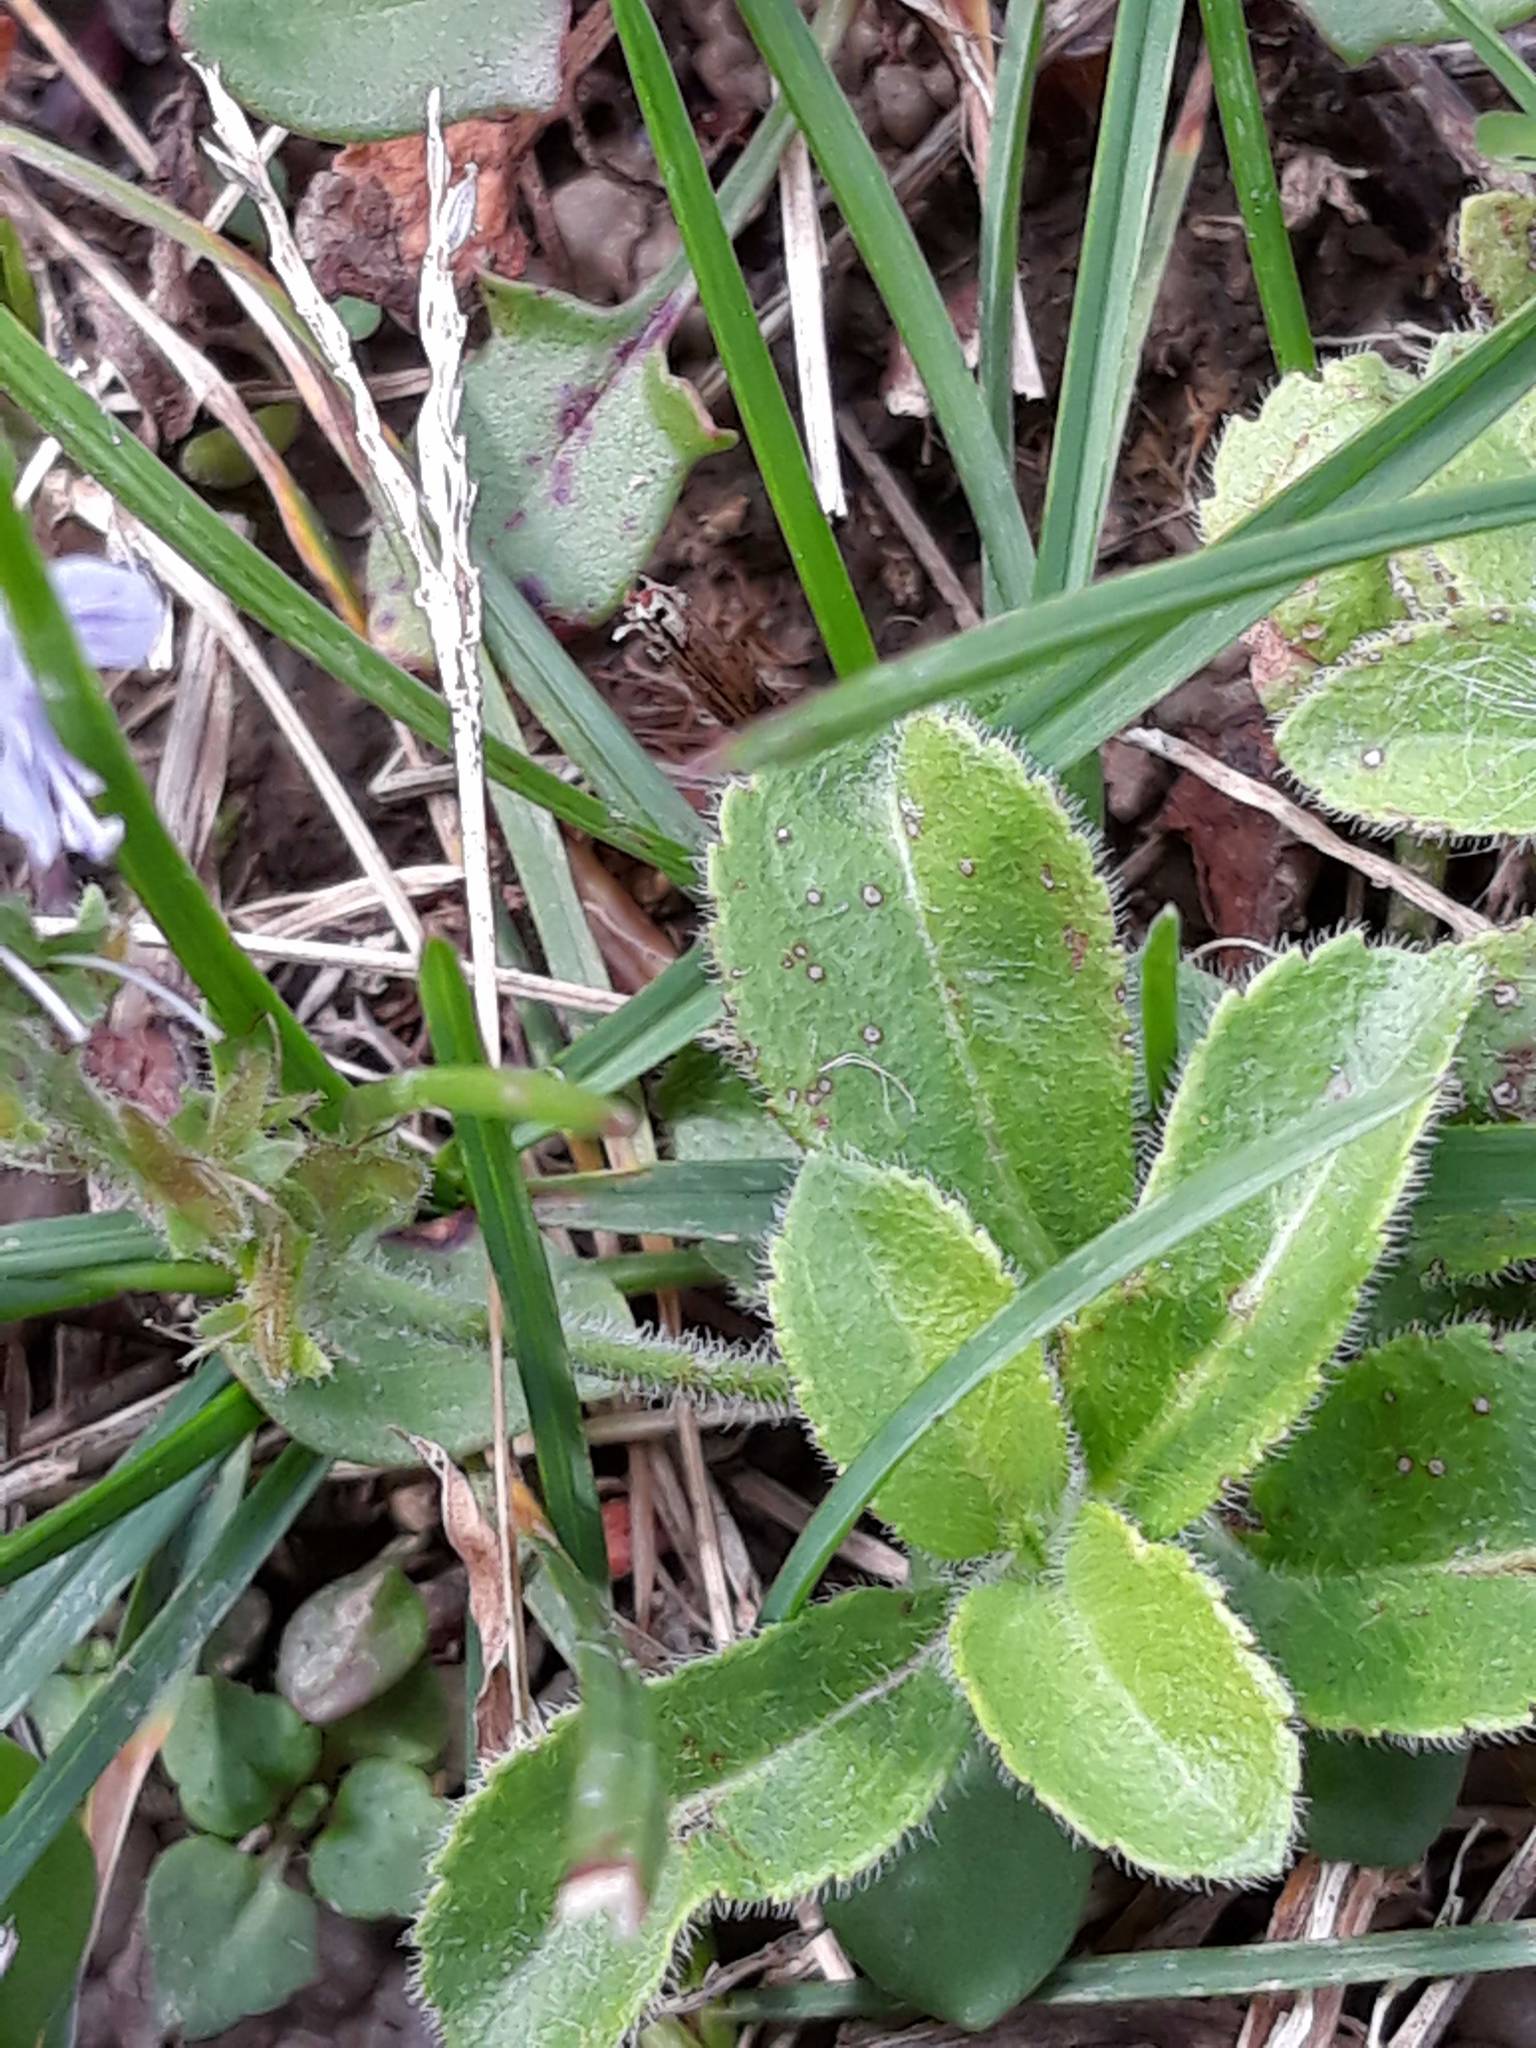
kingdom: Plantae
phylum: Tracheophyta
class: Magnoliopsida
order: Lamiales
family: Plantaginaceae
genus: Veronica
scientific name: Veronica officinalis
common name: Common speedwell
